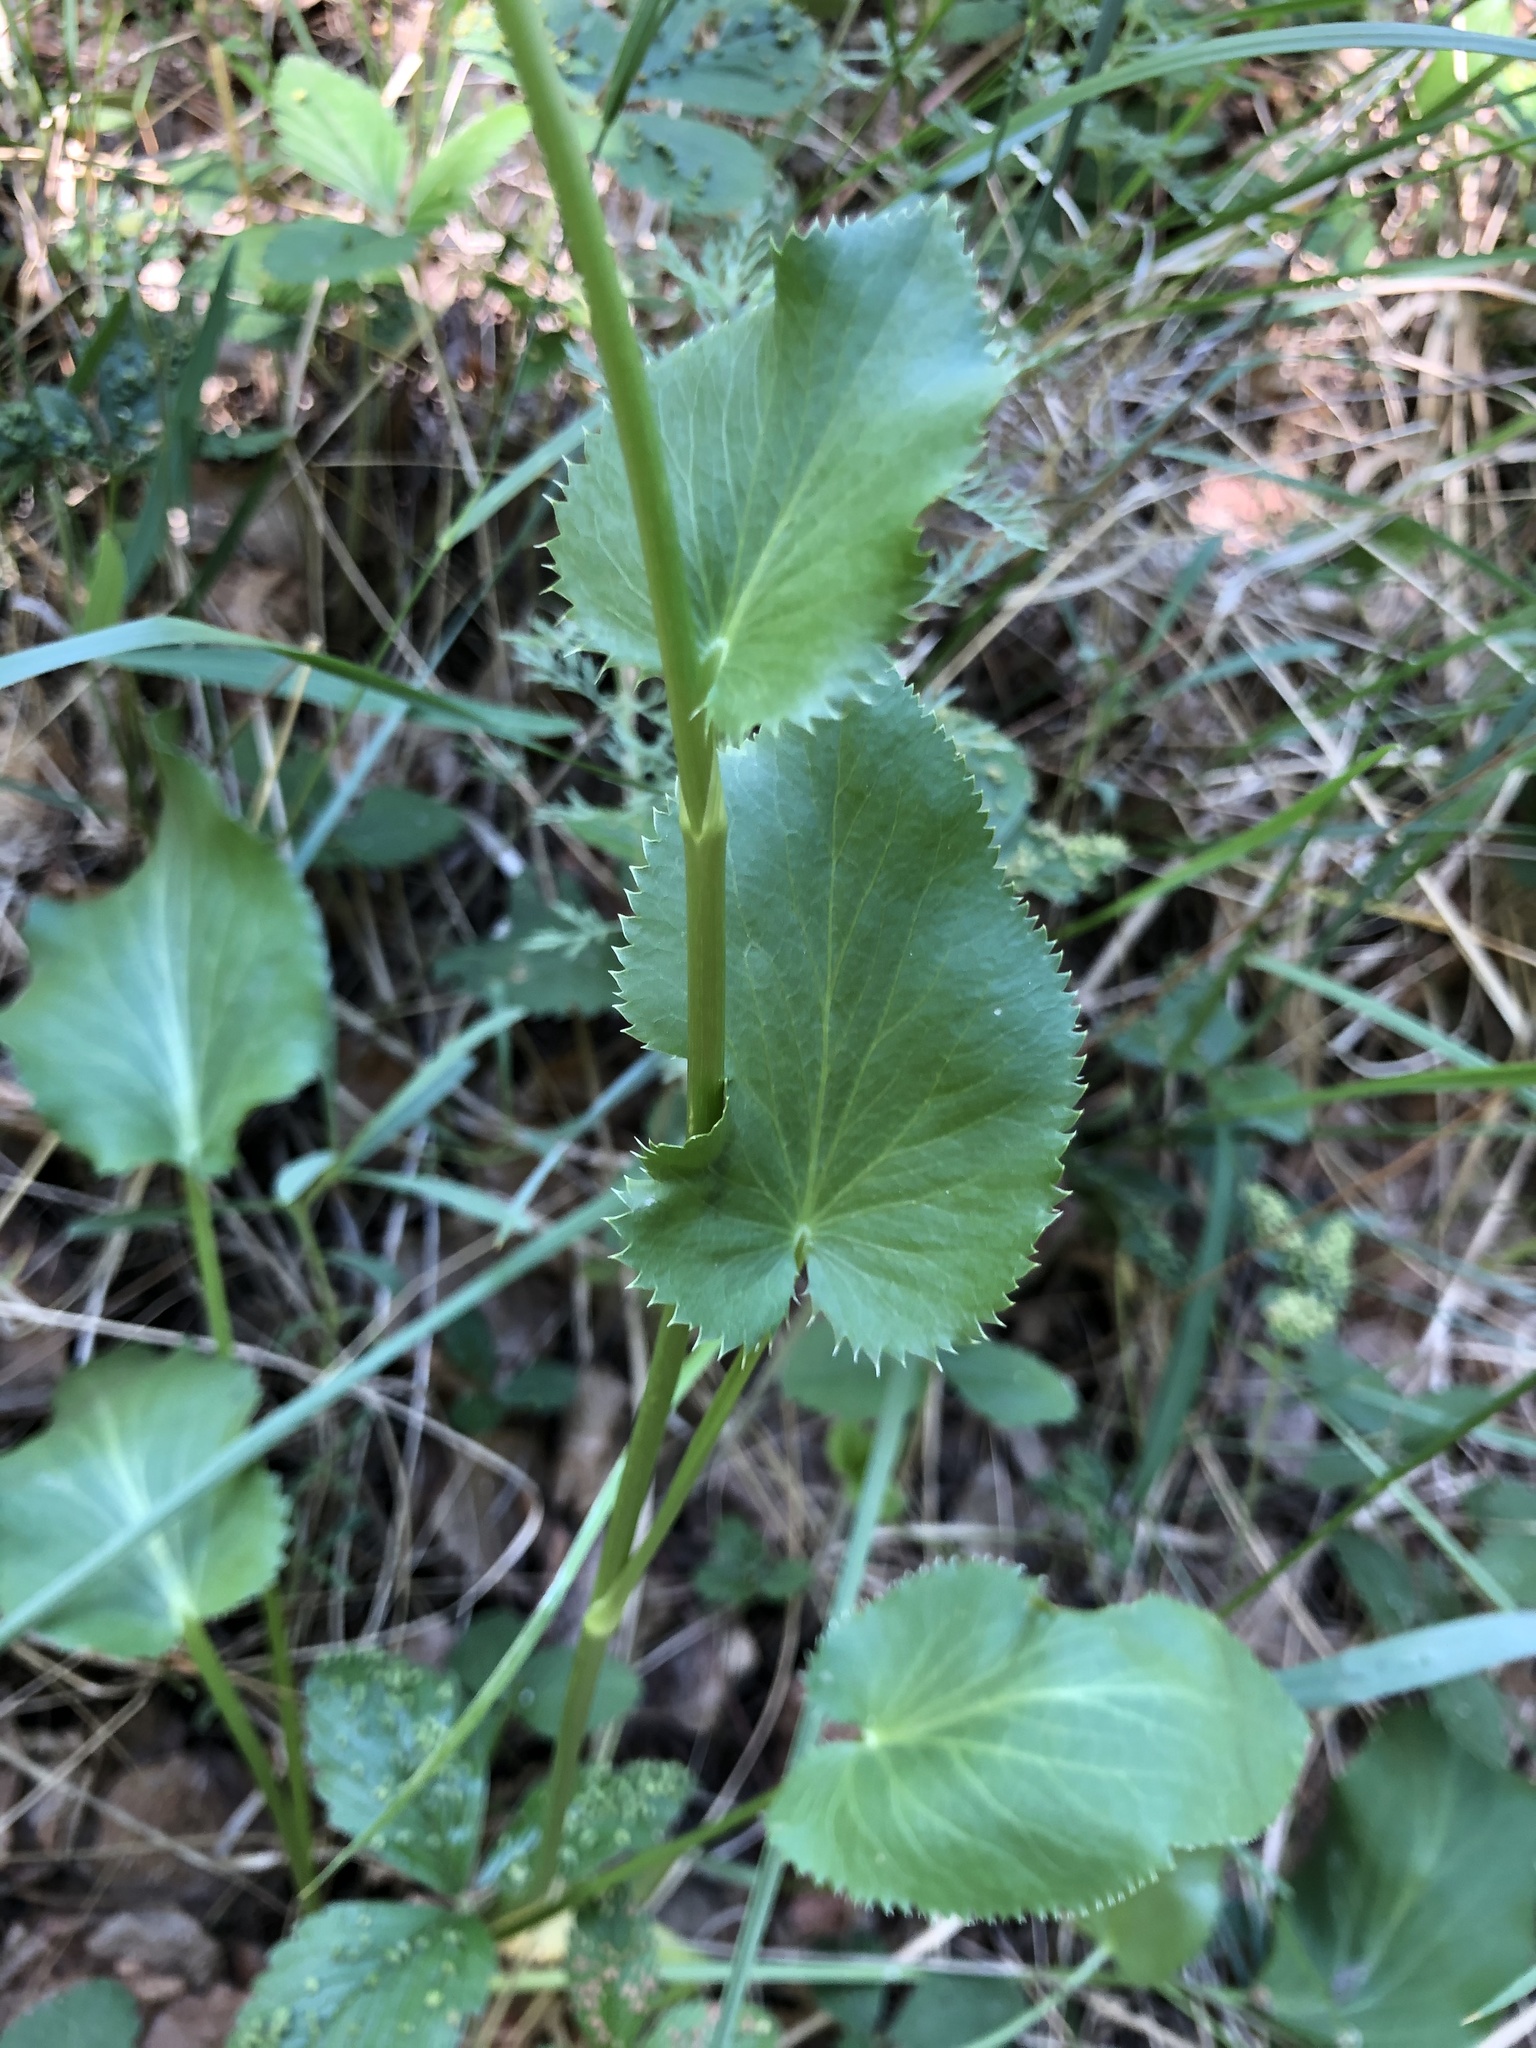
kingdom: Plantae
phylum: Tracheophyta
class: Magnoliopsida
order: Apiales
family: Apiaceae
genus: Eryngium
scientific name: Eryngium planum
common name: Blue eryngo
